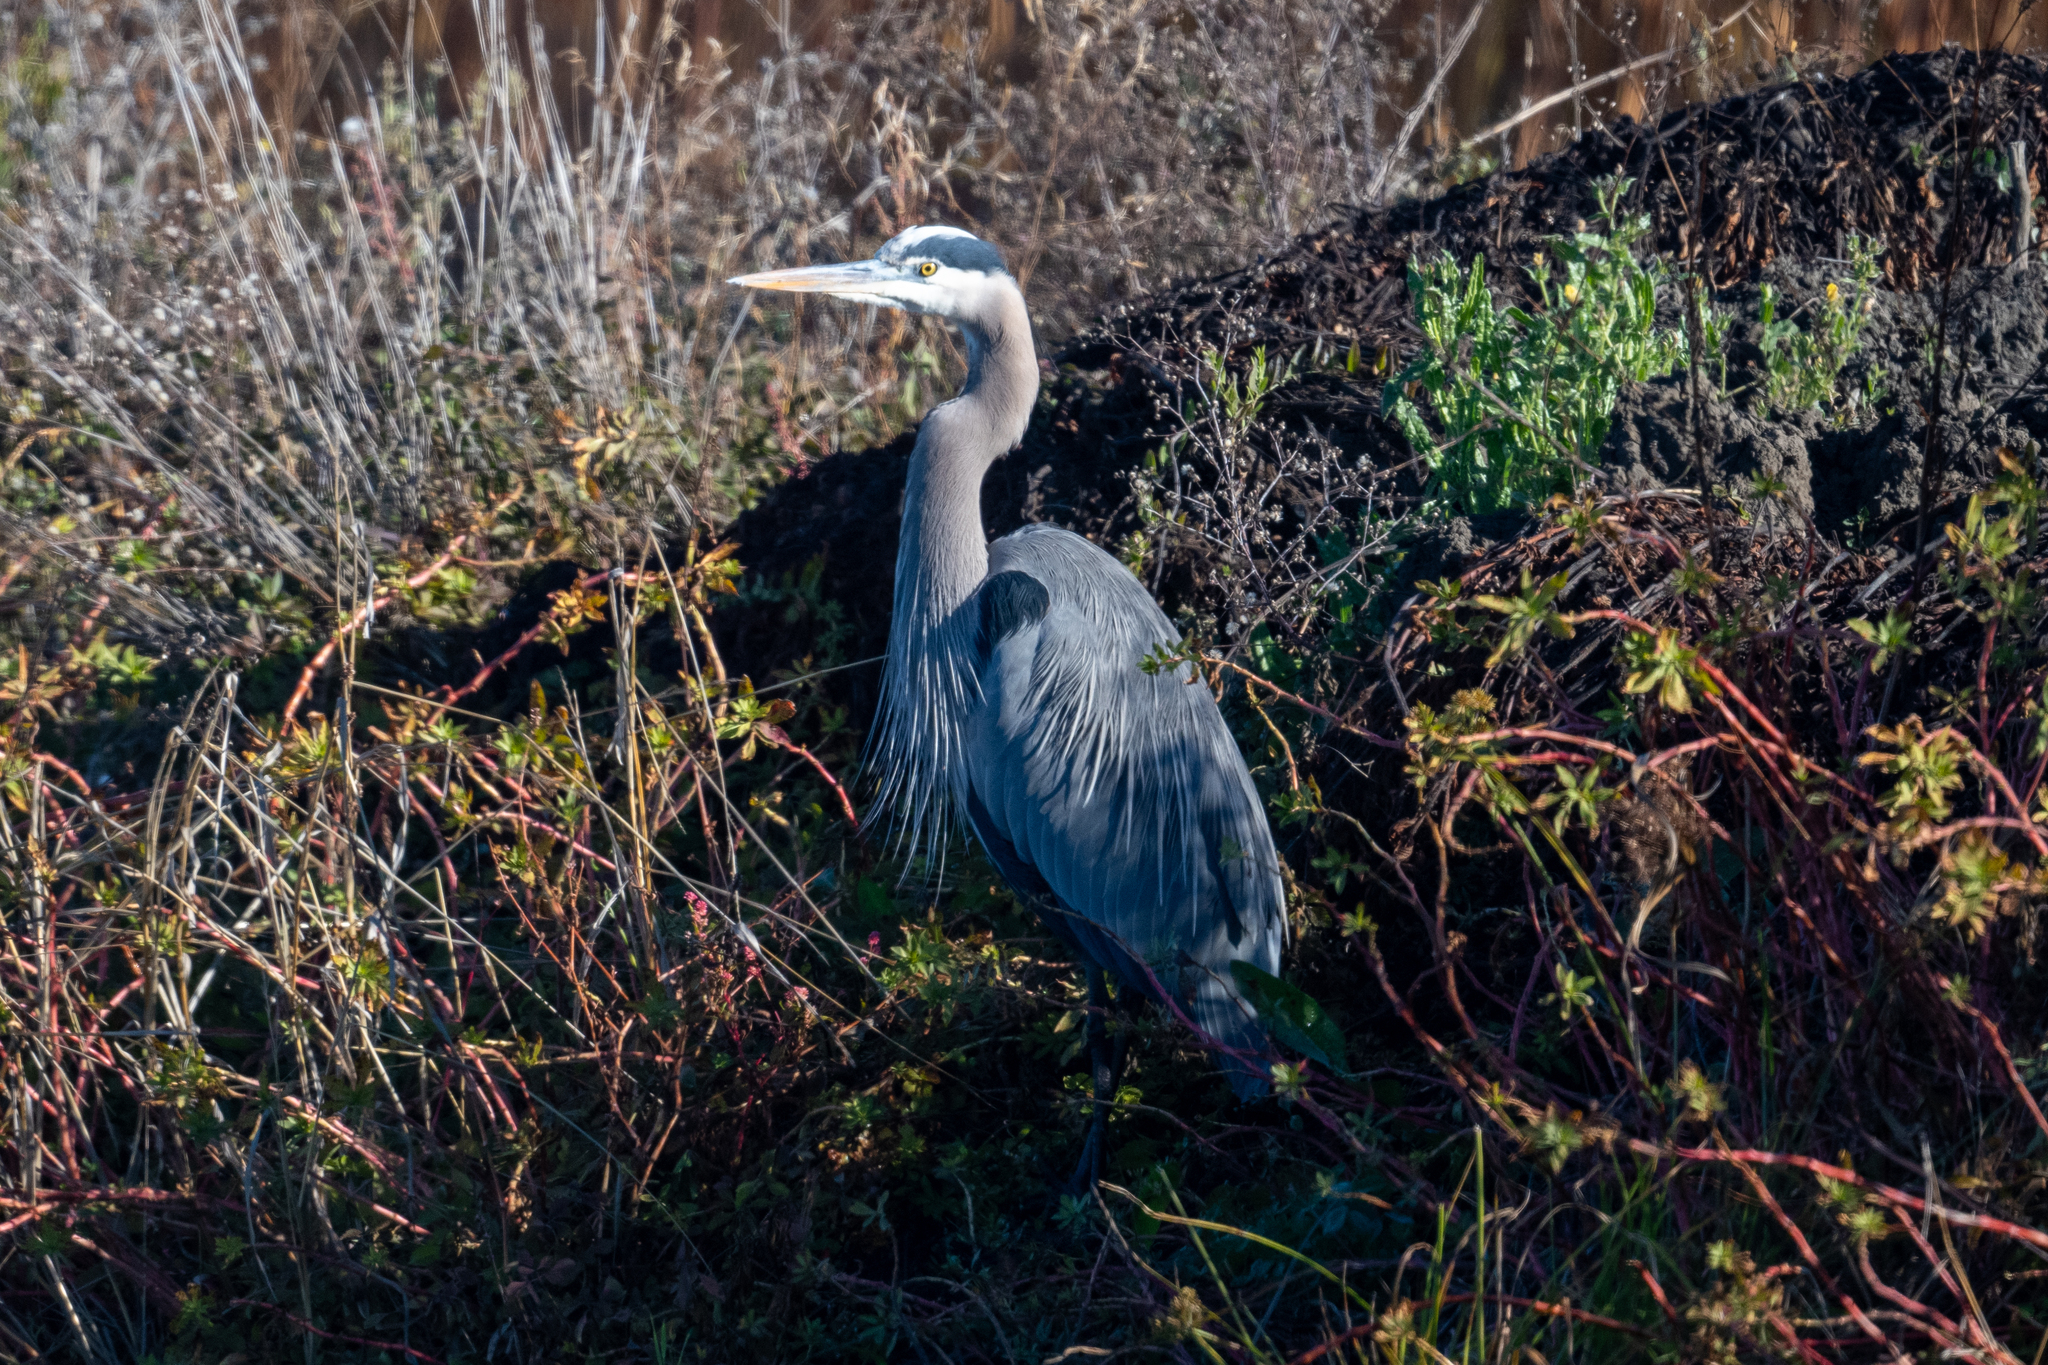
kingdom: Animalia
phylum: Chordata
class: Aves
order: Pelecaniformes
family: Ardeidae
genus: Ardea
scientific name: Ardea herodias
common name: Great blue heron
